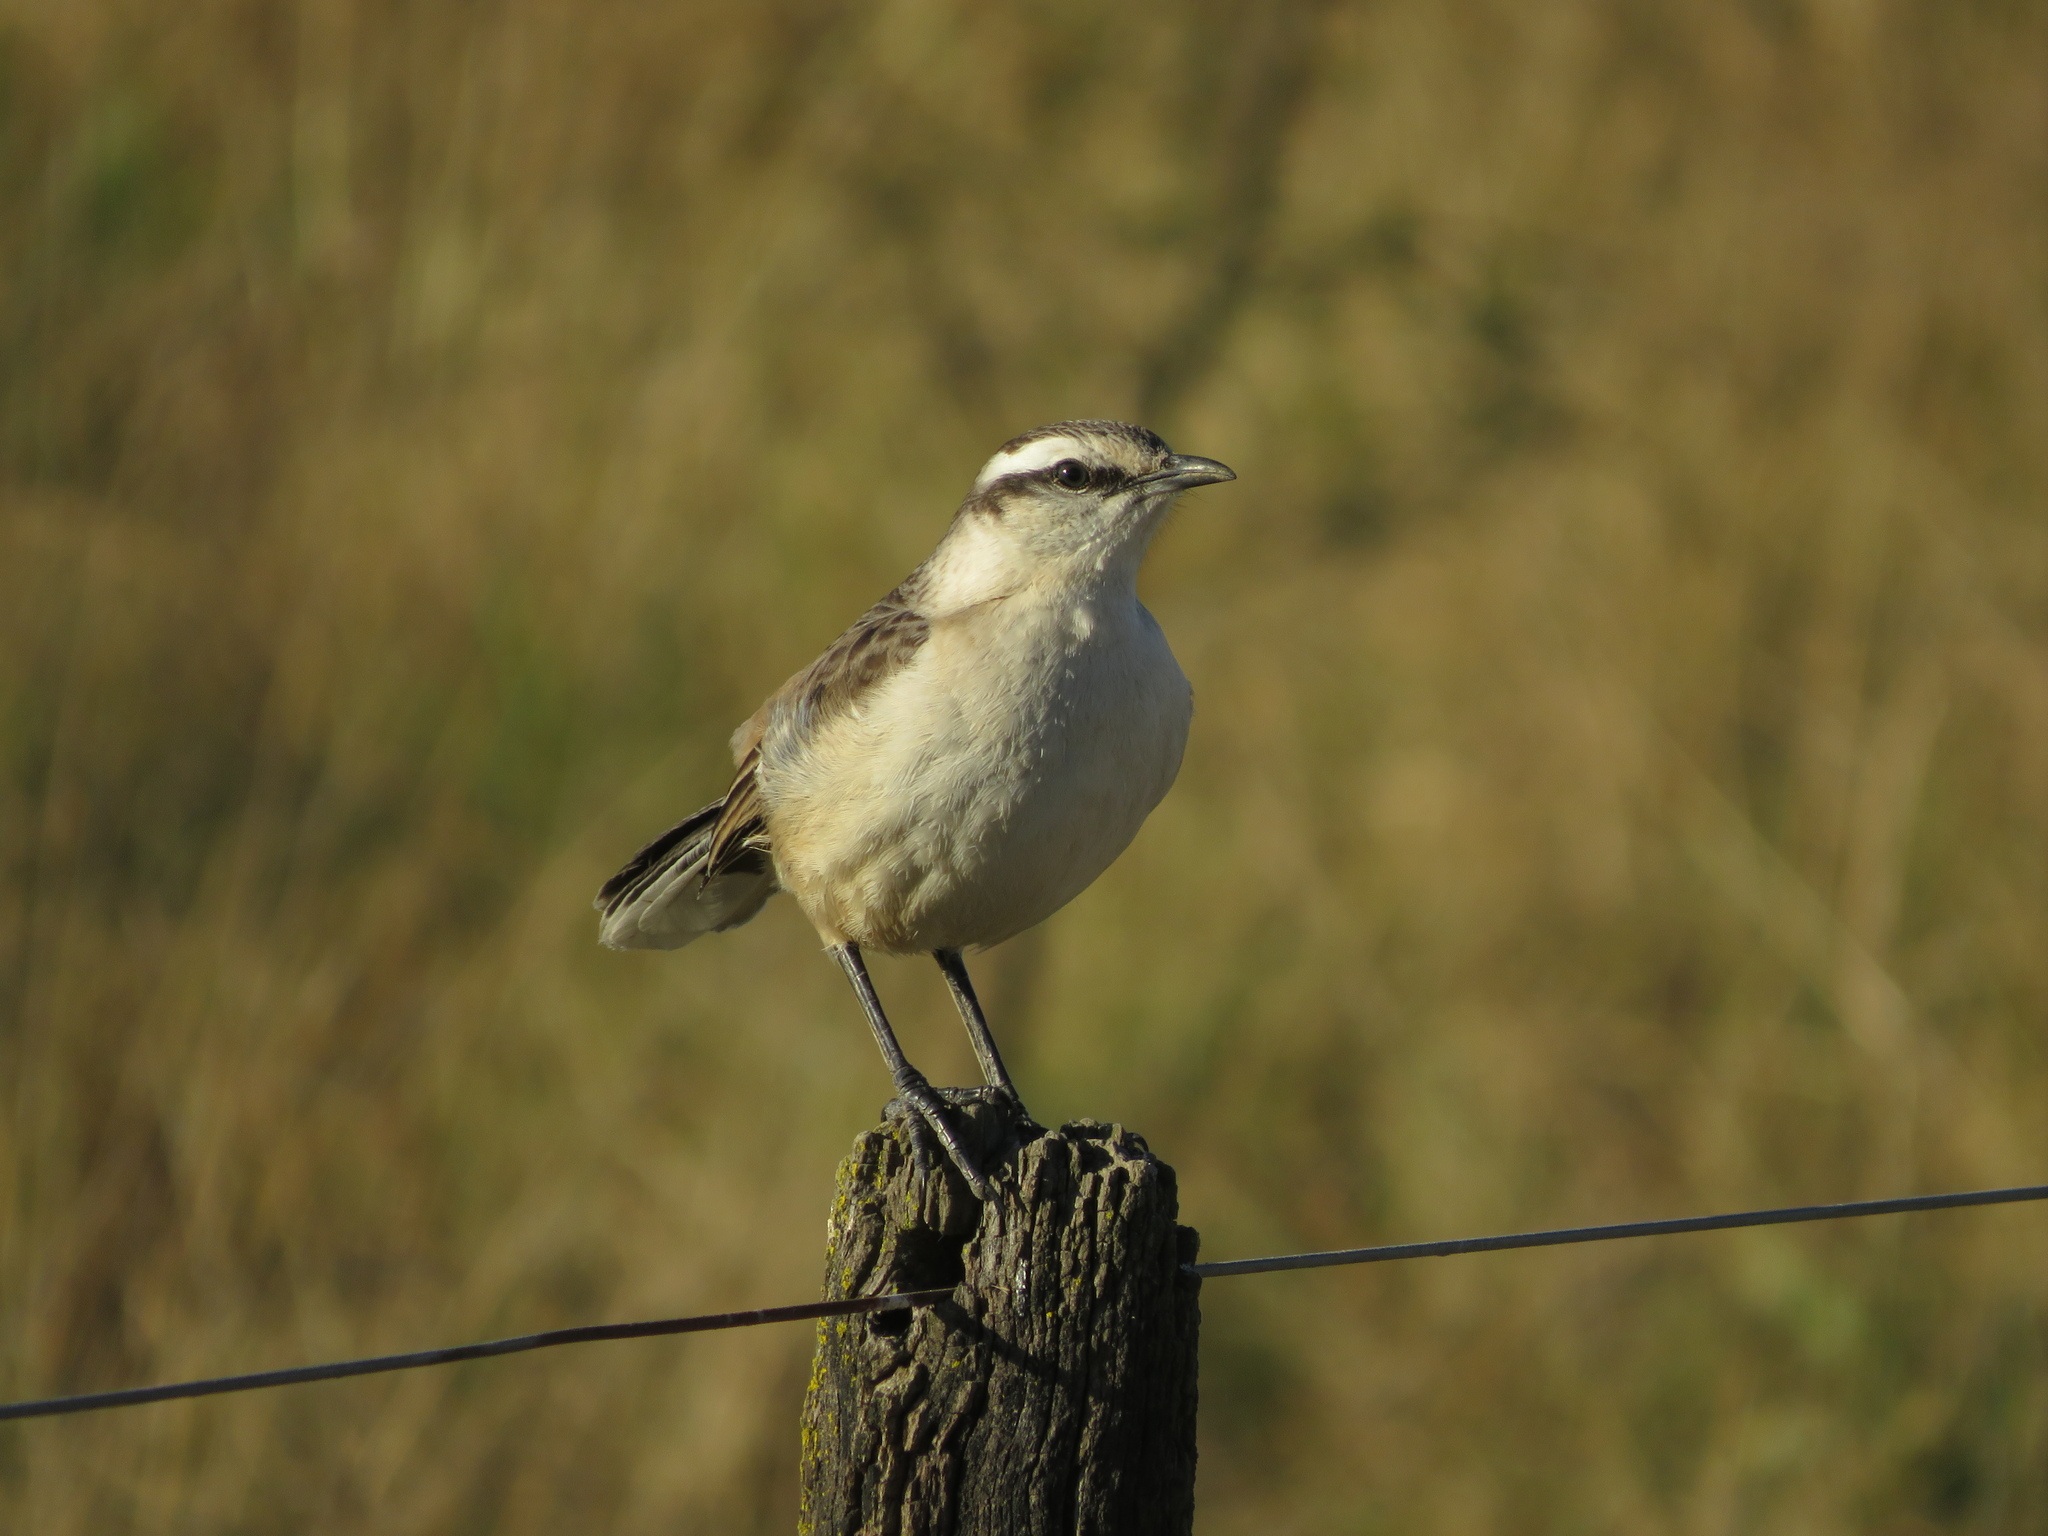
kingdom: Animalia
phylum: Chordata
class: Aves
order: Passeriformes
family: Mimidae
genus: Mimus
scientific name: Mimus saturninus
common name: Chalk-browed mockingbird
